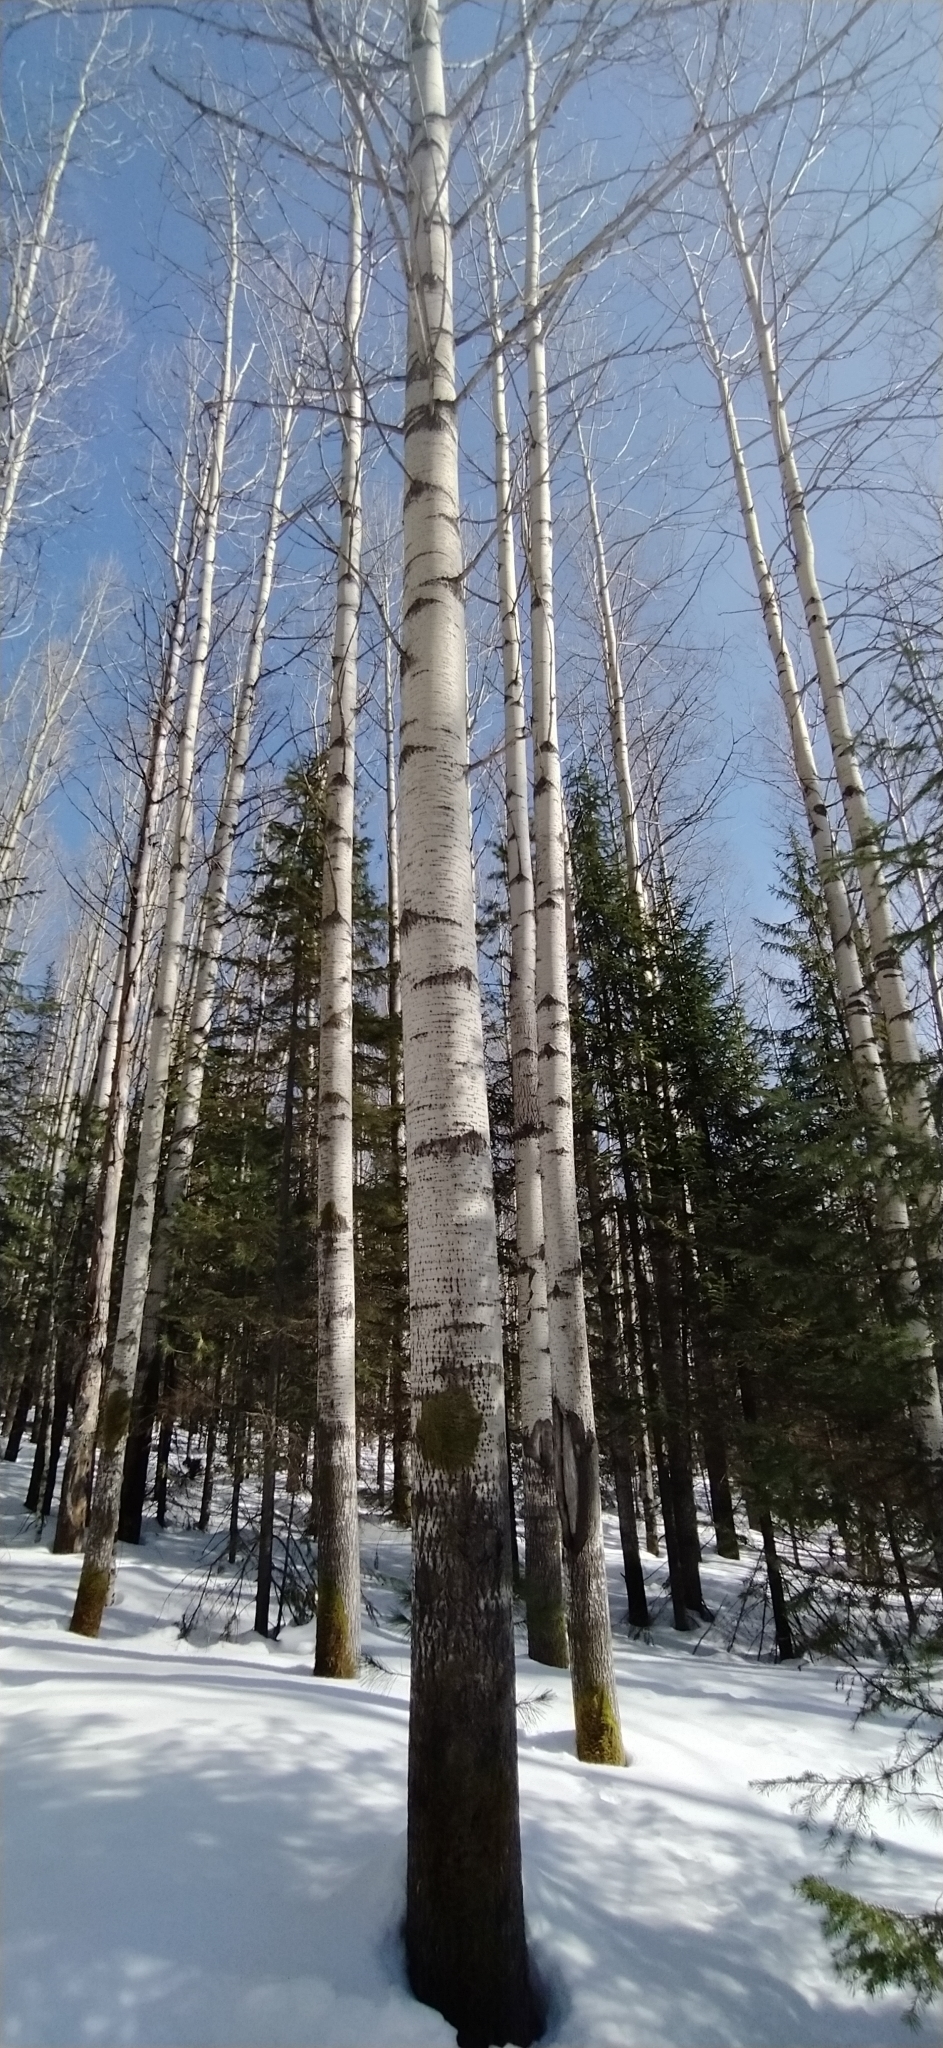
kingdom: Plantae
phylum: Tracheophyta
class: Magnoliopsida
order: Malpighiales
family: Salicaceae
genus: Populus
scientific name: Populus tremula
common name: European aspen
